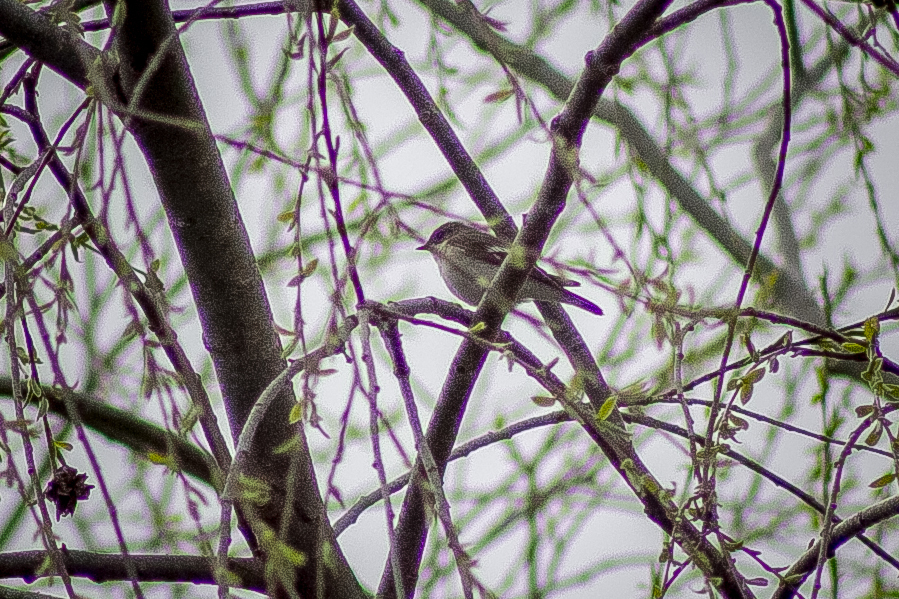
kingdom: Animalia
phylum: Chordata
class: Aves
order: Passeriformes
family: Muscicapidae
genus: Ficedula
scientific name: Ficedula hypoleuca
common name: European pied flycatcher
